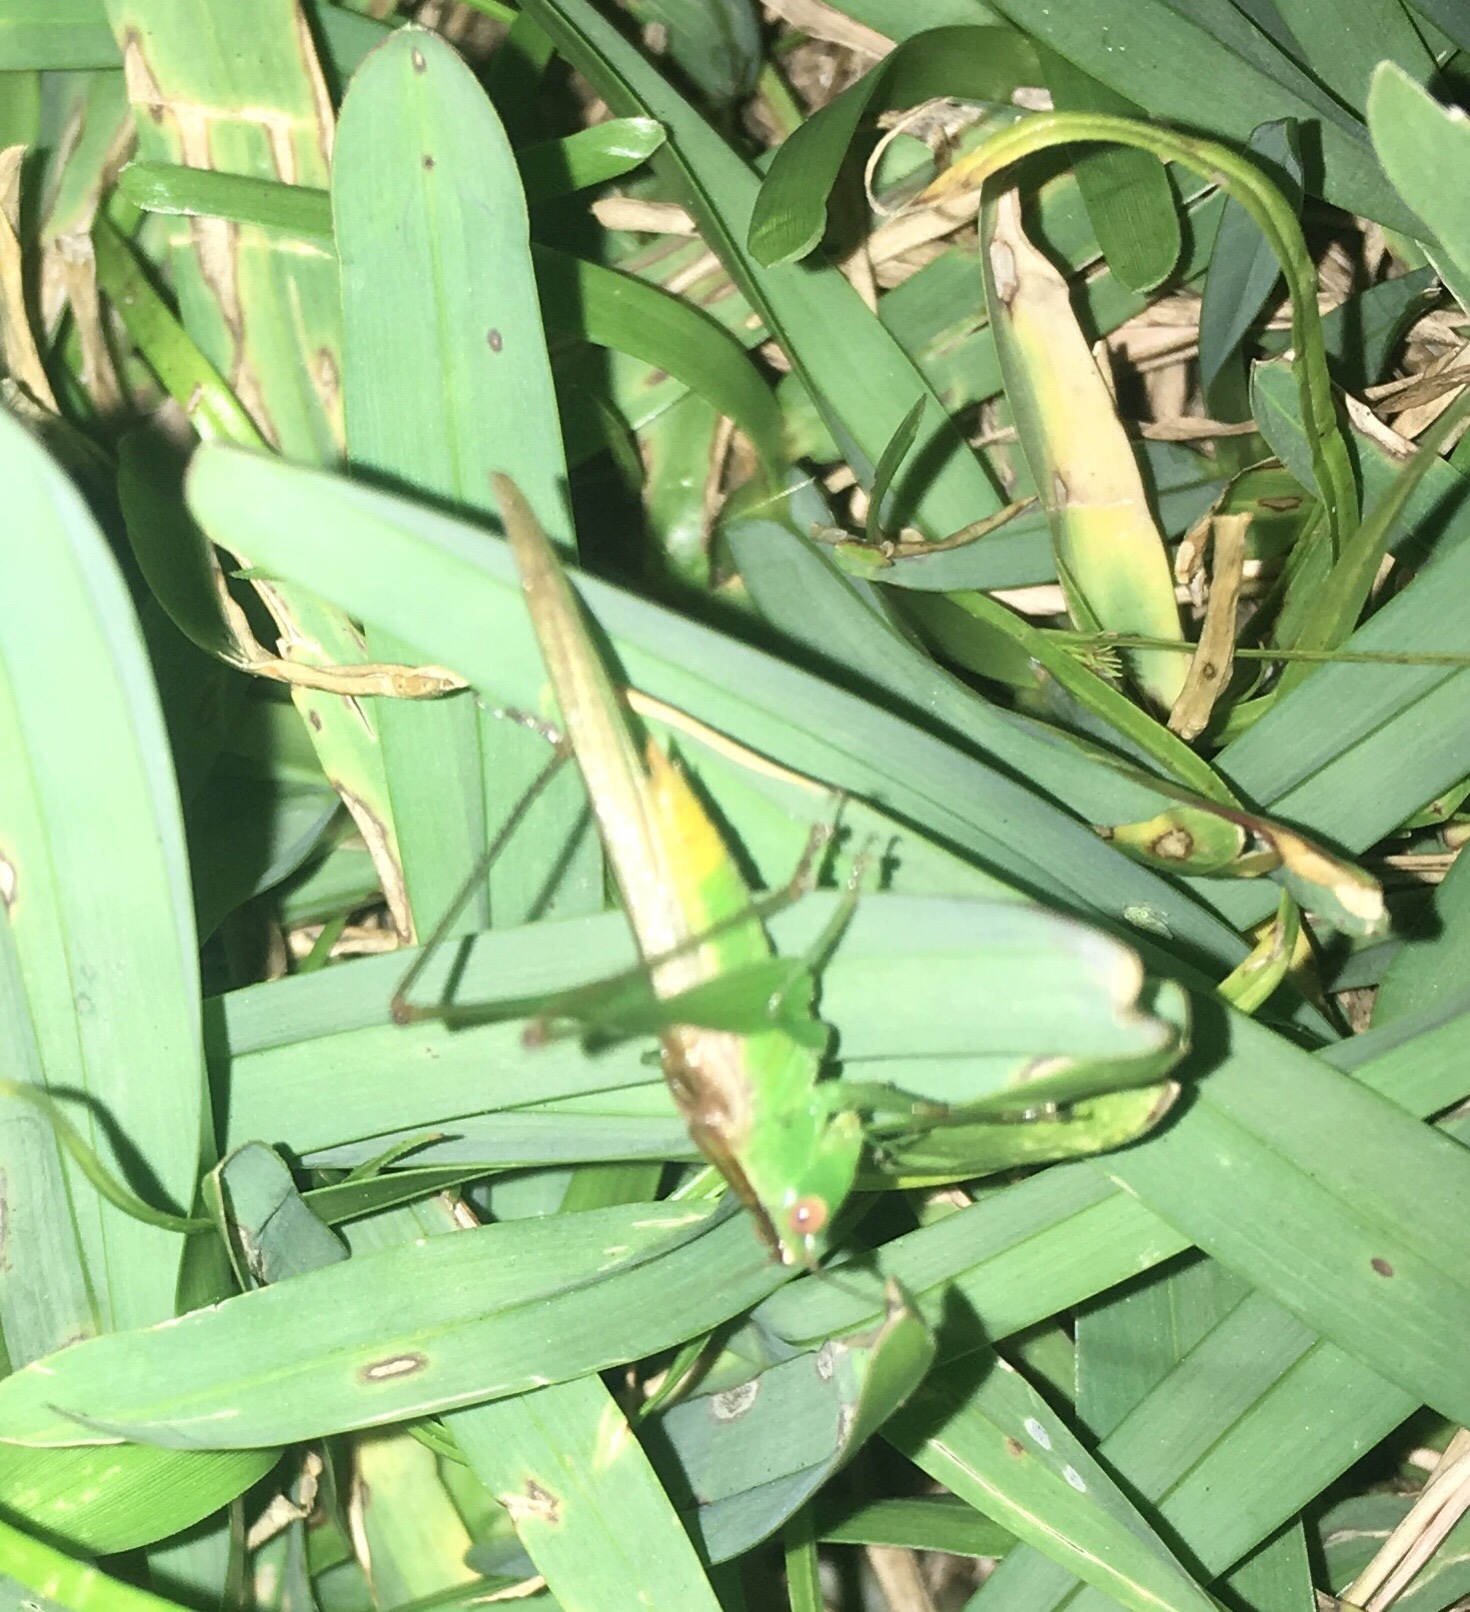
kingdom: Animalia
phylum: Arthropoda
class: Insecta
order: Orthoptera
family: Tettigoniidae
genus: Conocephalus
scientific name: Conocephalus cinereus
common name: Caribbean meadow katydid
